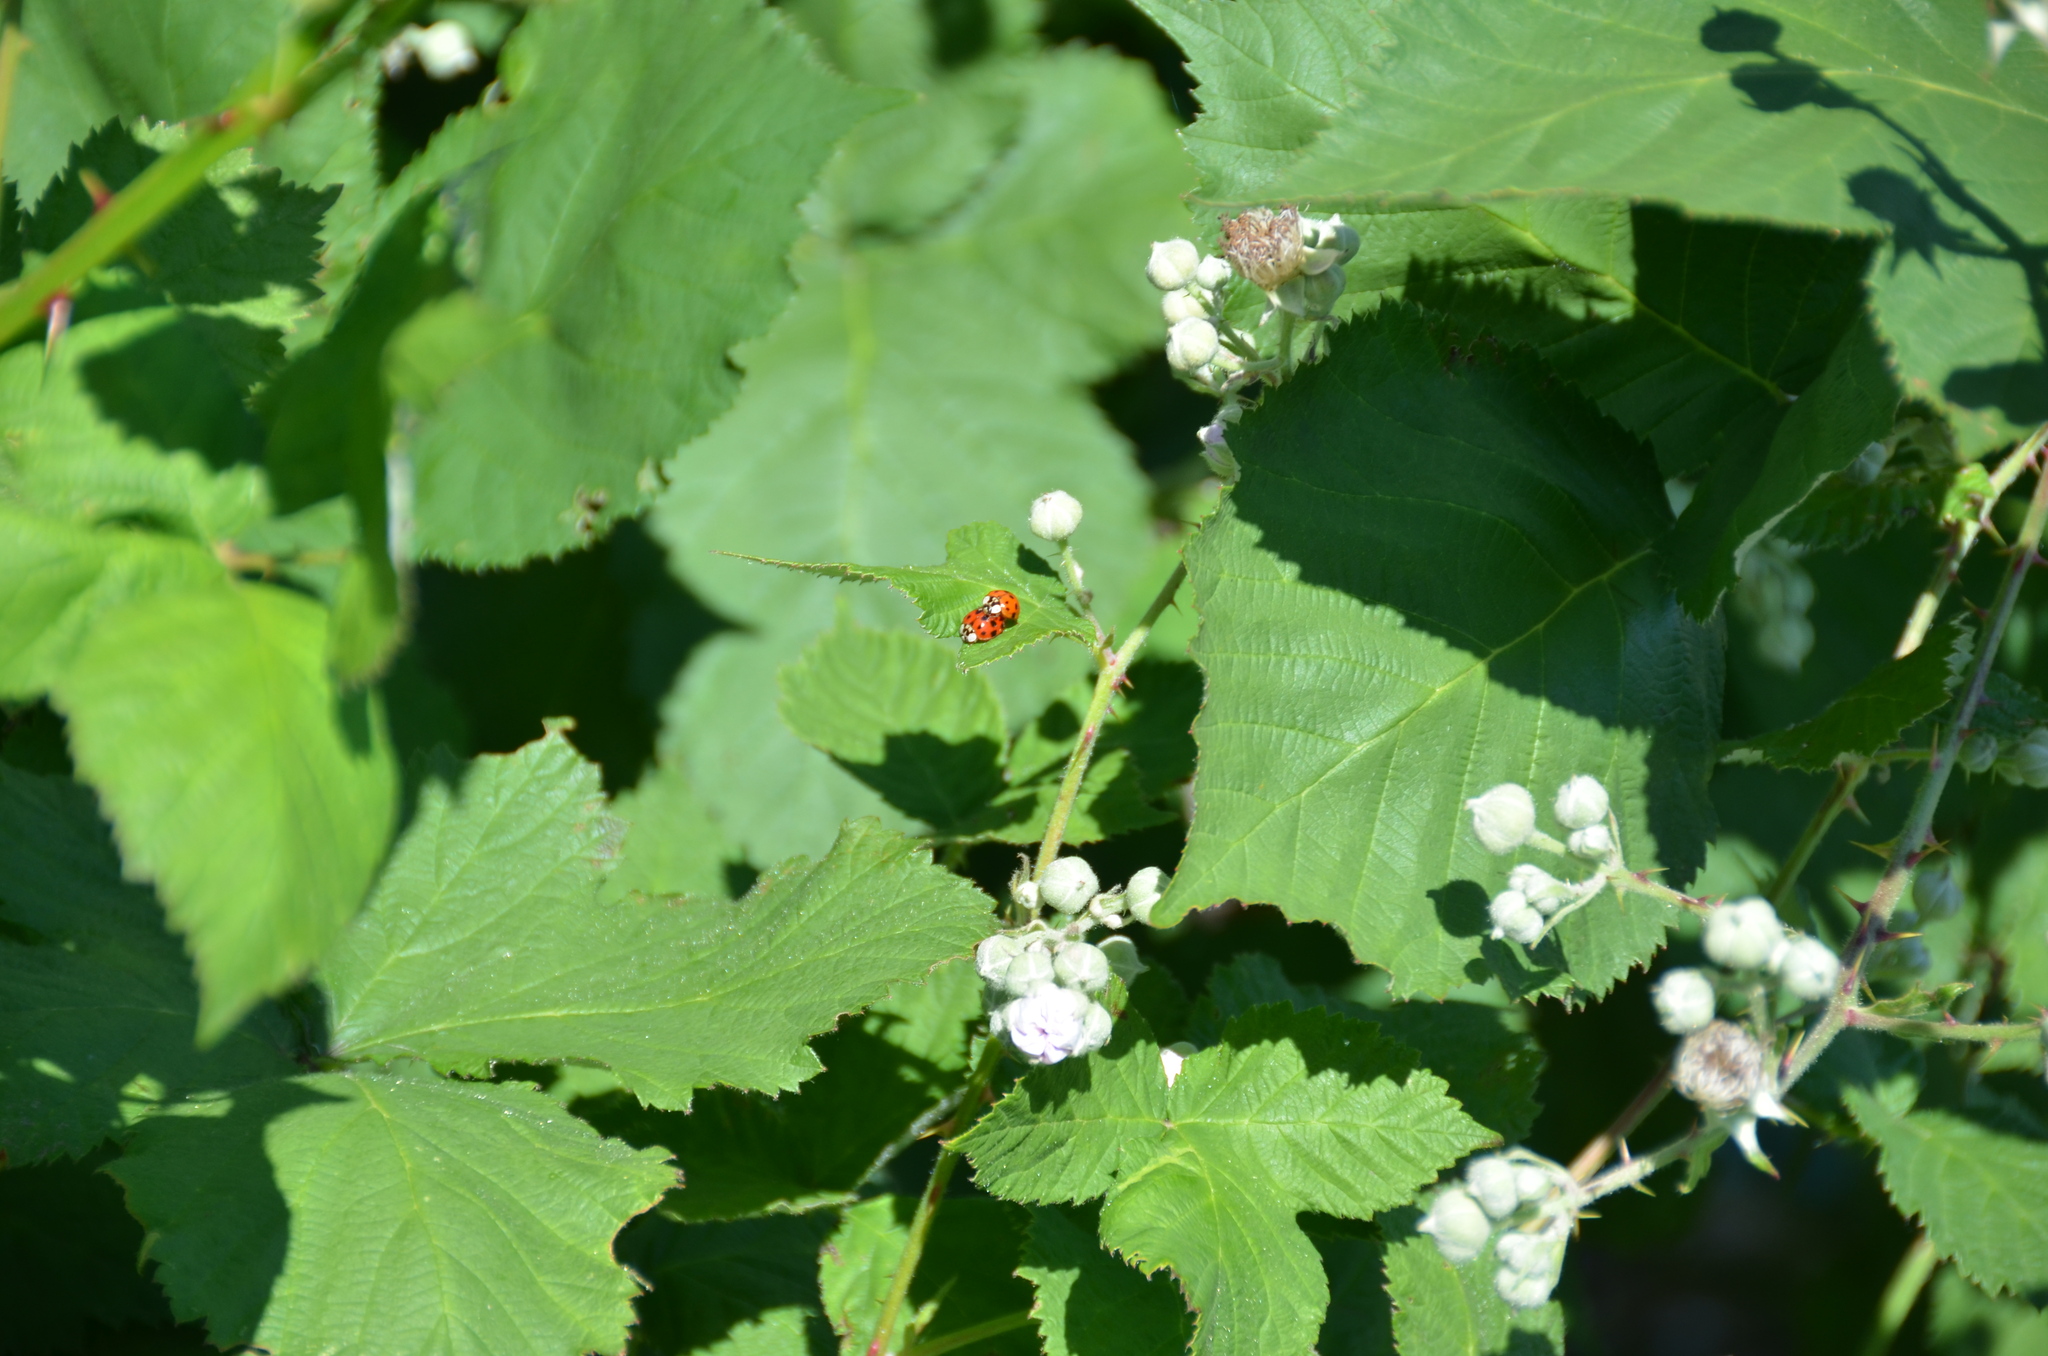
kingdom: Animalia
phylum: Arthropoda
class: Insecta
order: Coleoptera
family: Coccinellidae
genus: Harmonia
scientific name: Harmonia axyridis
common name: Harlequin ladybird
